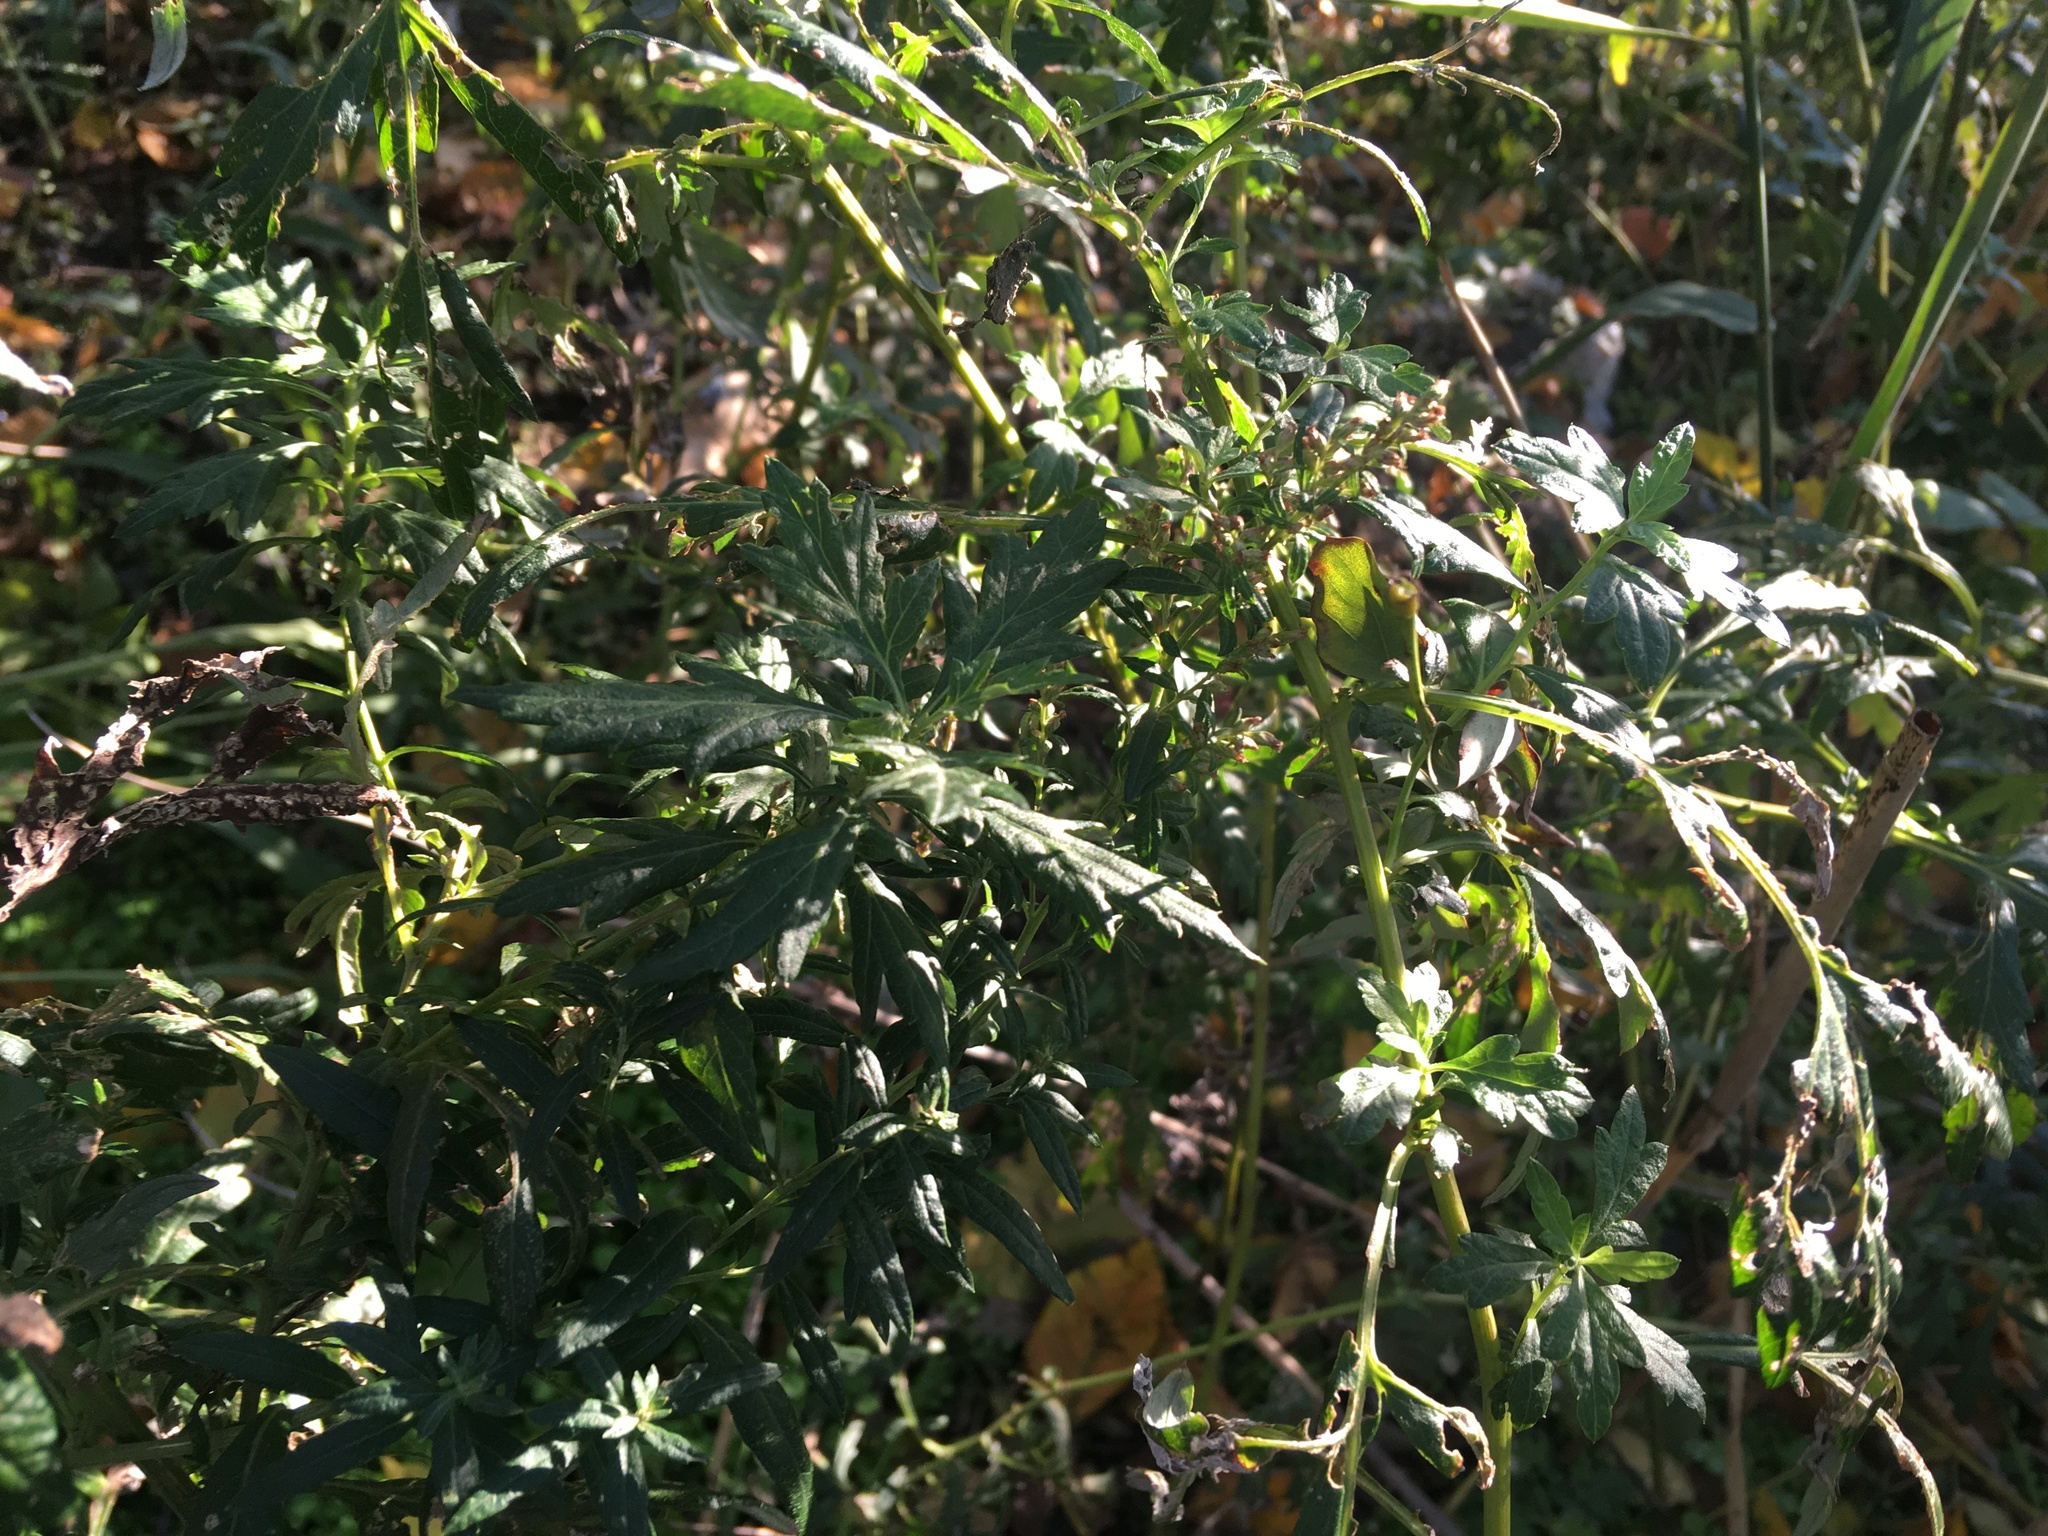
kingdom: Plantae
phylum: Tracheophyta
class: Magnoliopsida
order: Asterales
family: Asteraceae
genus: Artemisia
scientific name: Artemisia vulgaris
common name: Mugwort
